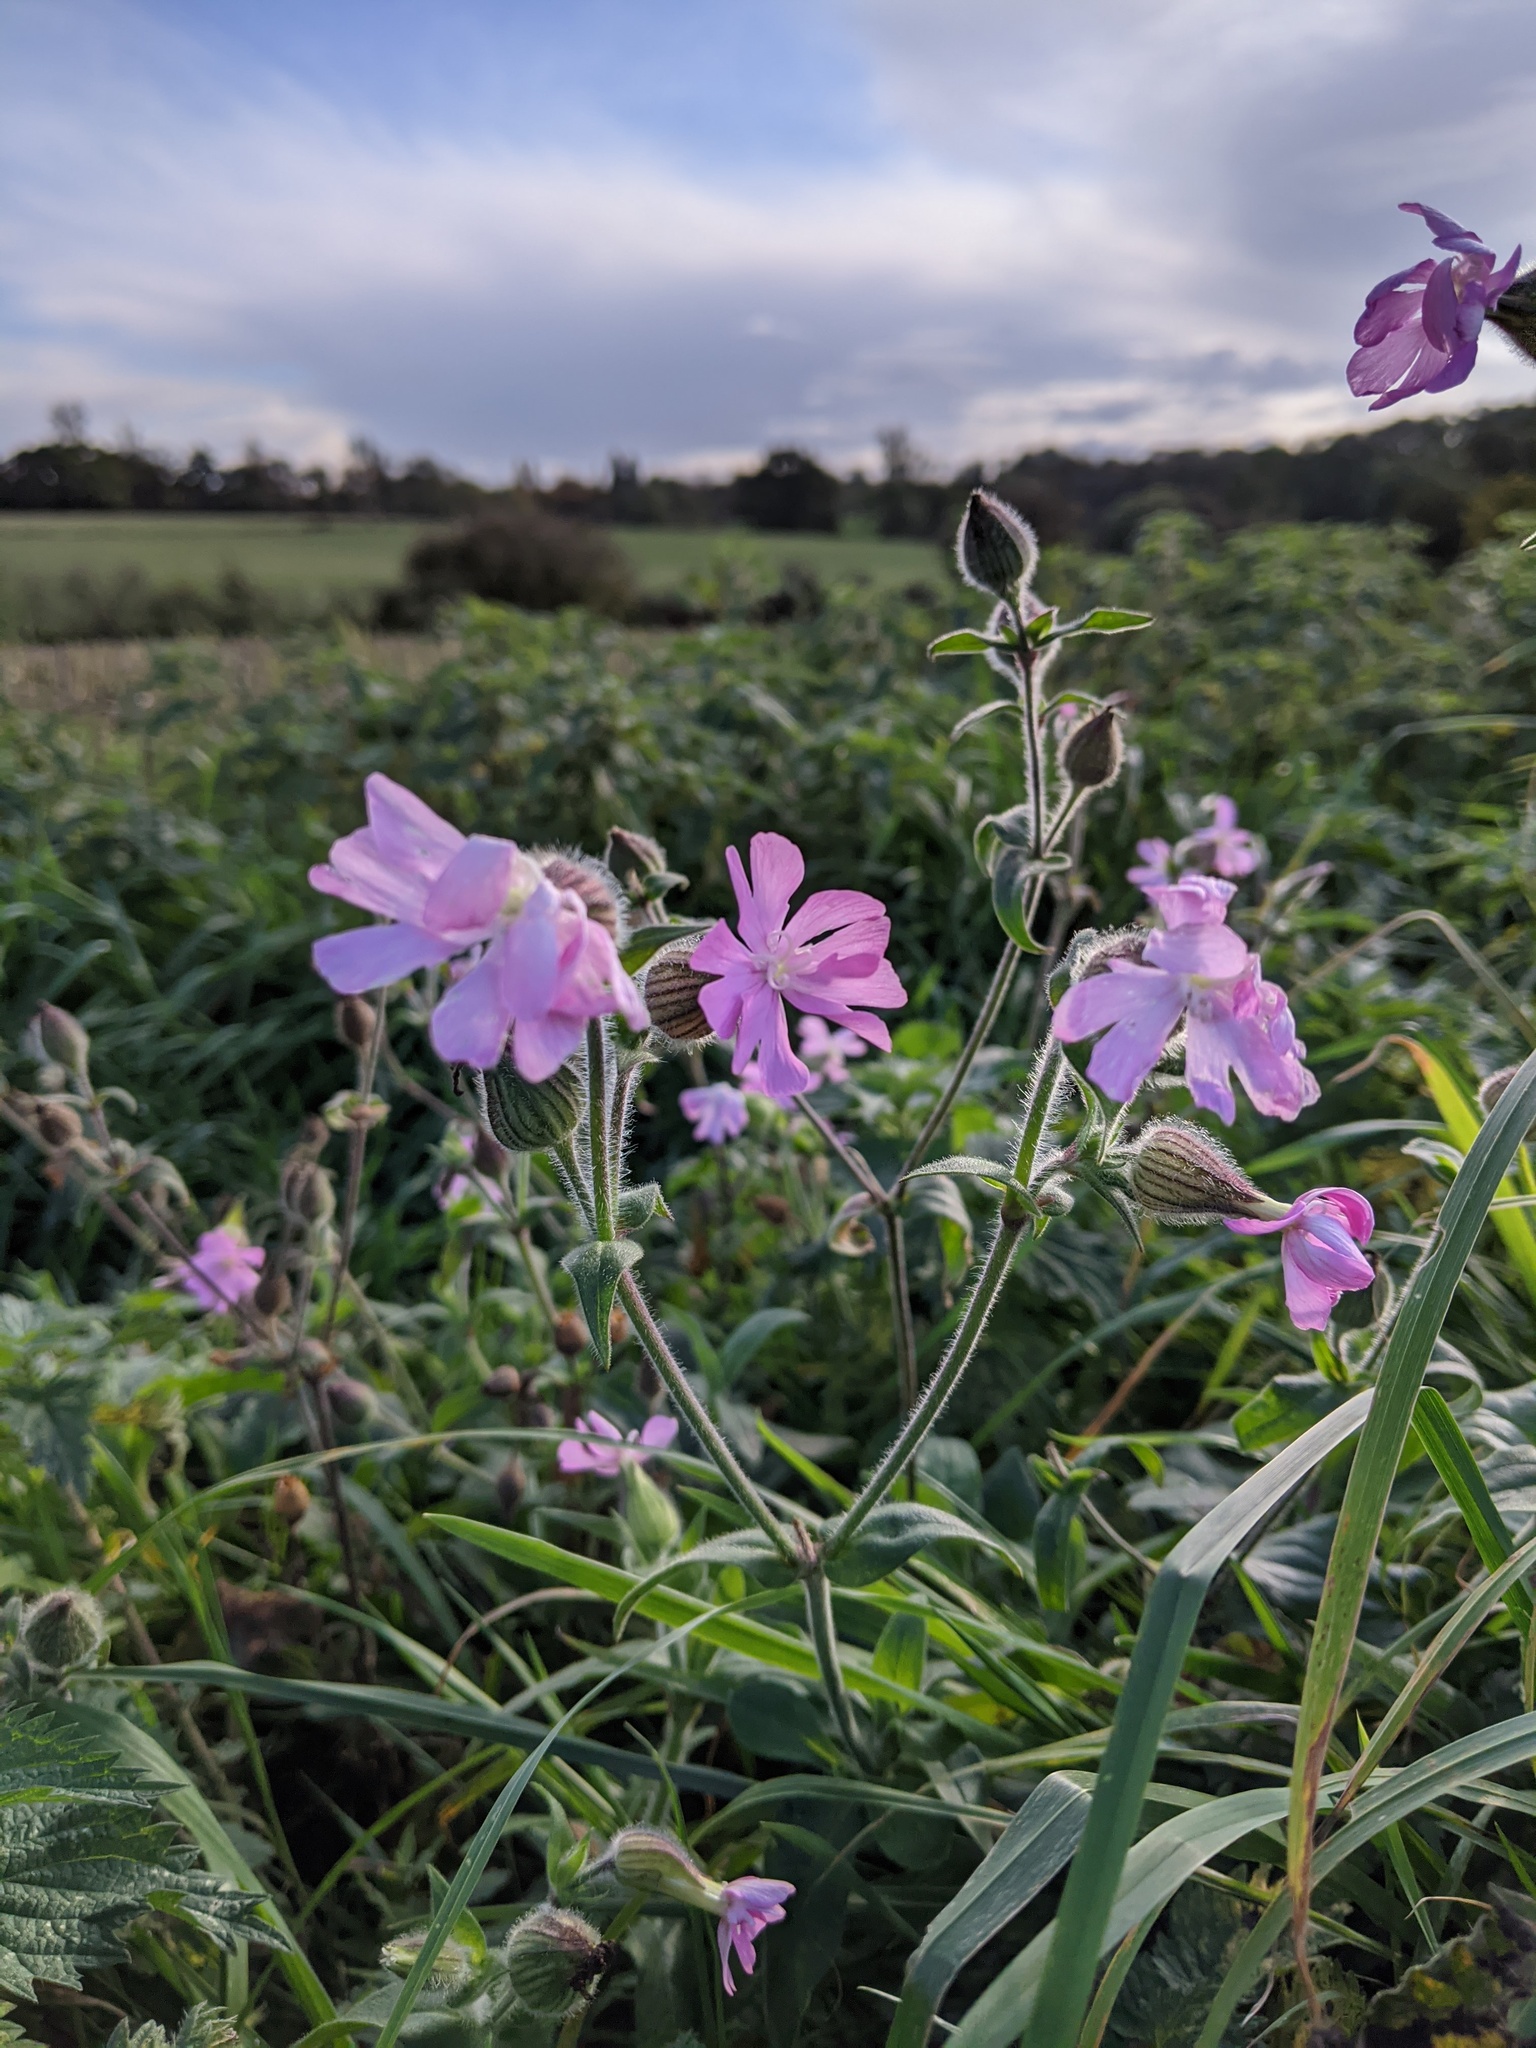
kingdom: Plantae
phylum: Tracheophyta
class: Magnoliopsida
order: Caryophyllales
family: Caryophyllaceae
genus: Silene
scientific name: Silene dioica
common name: Red campion
